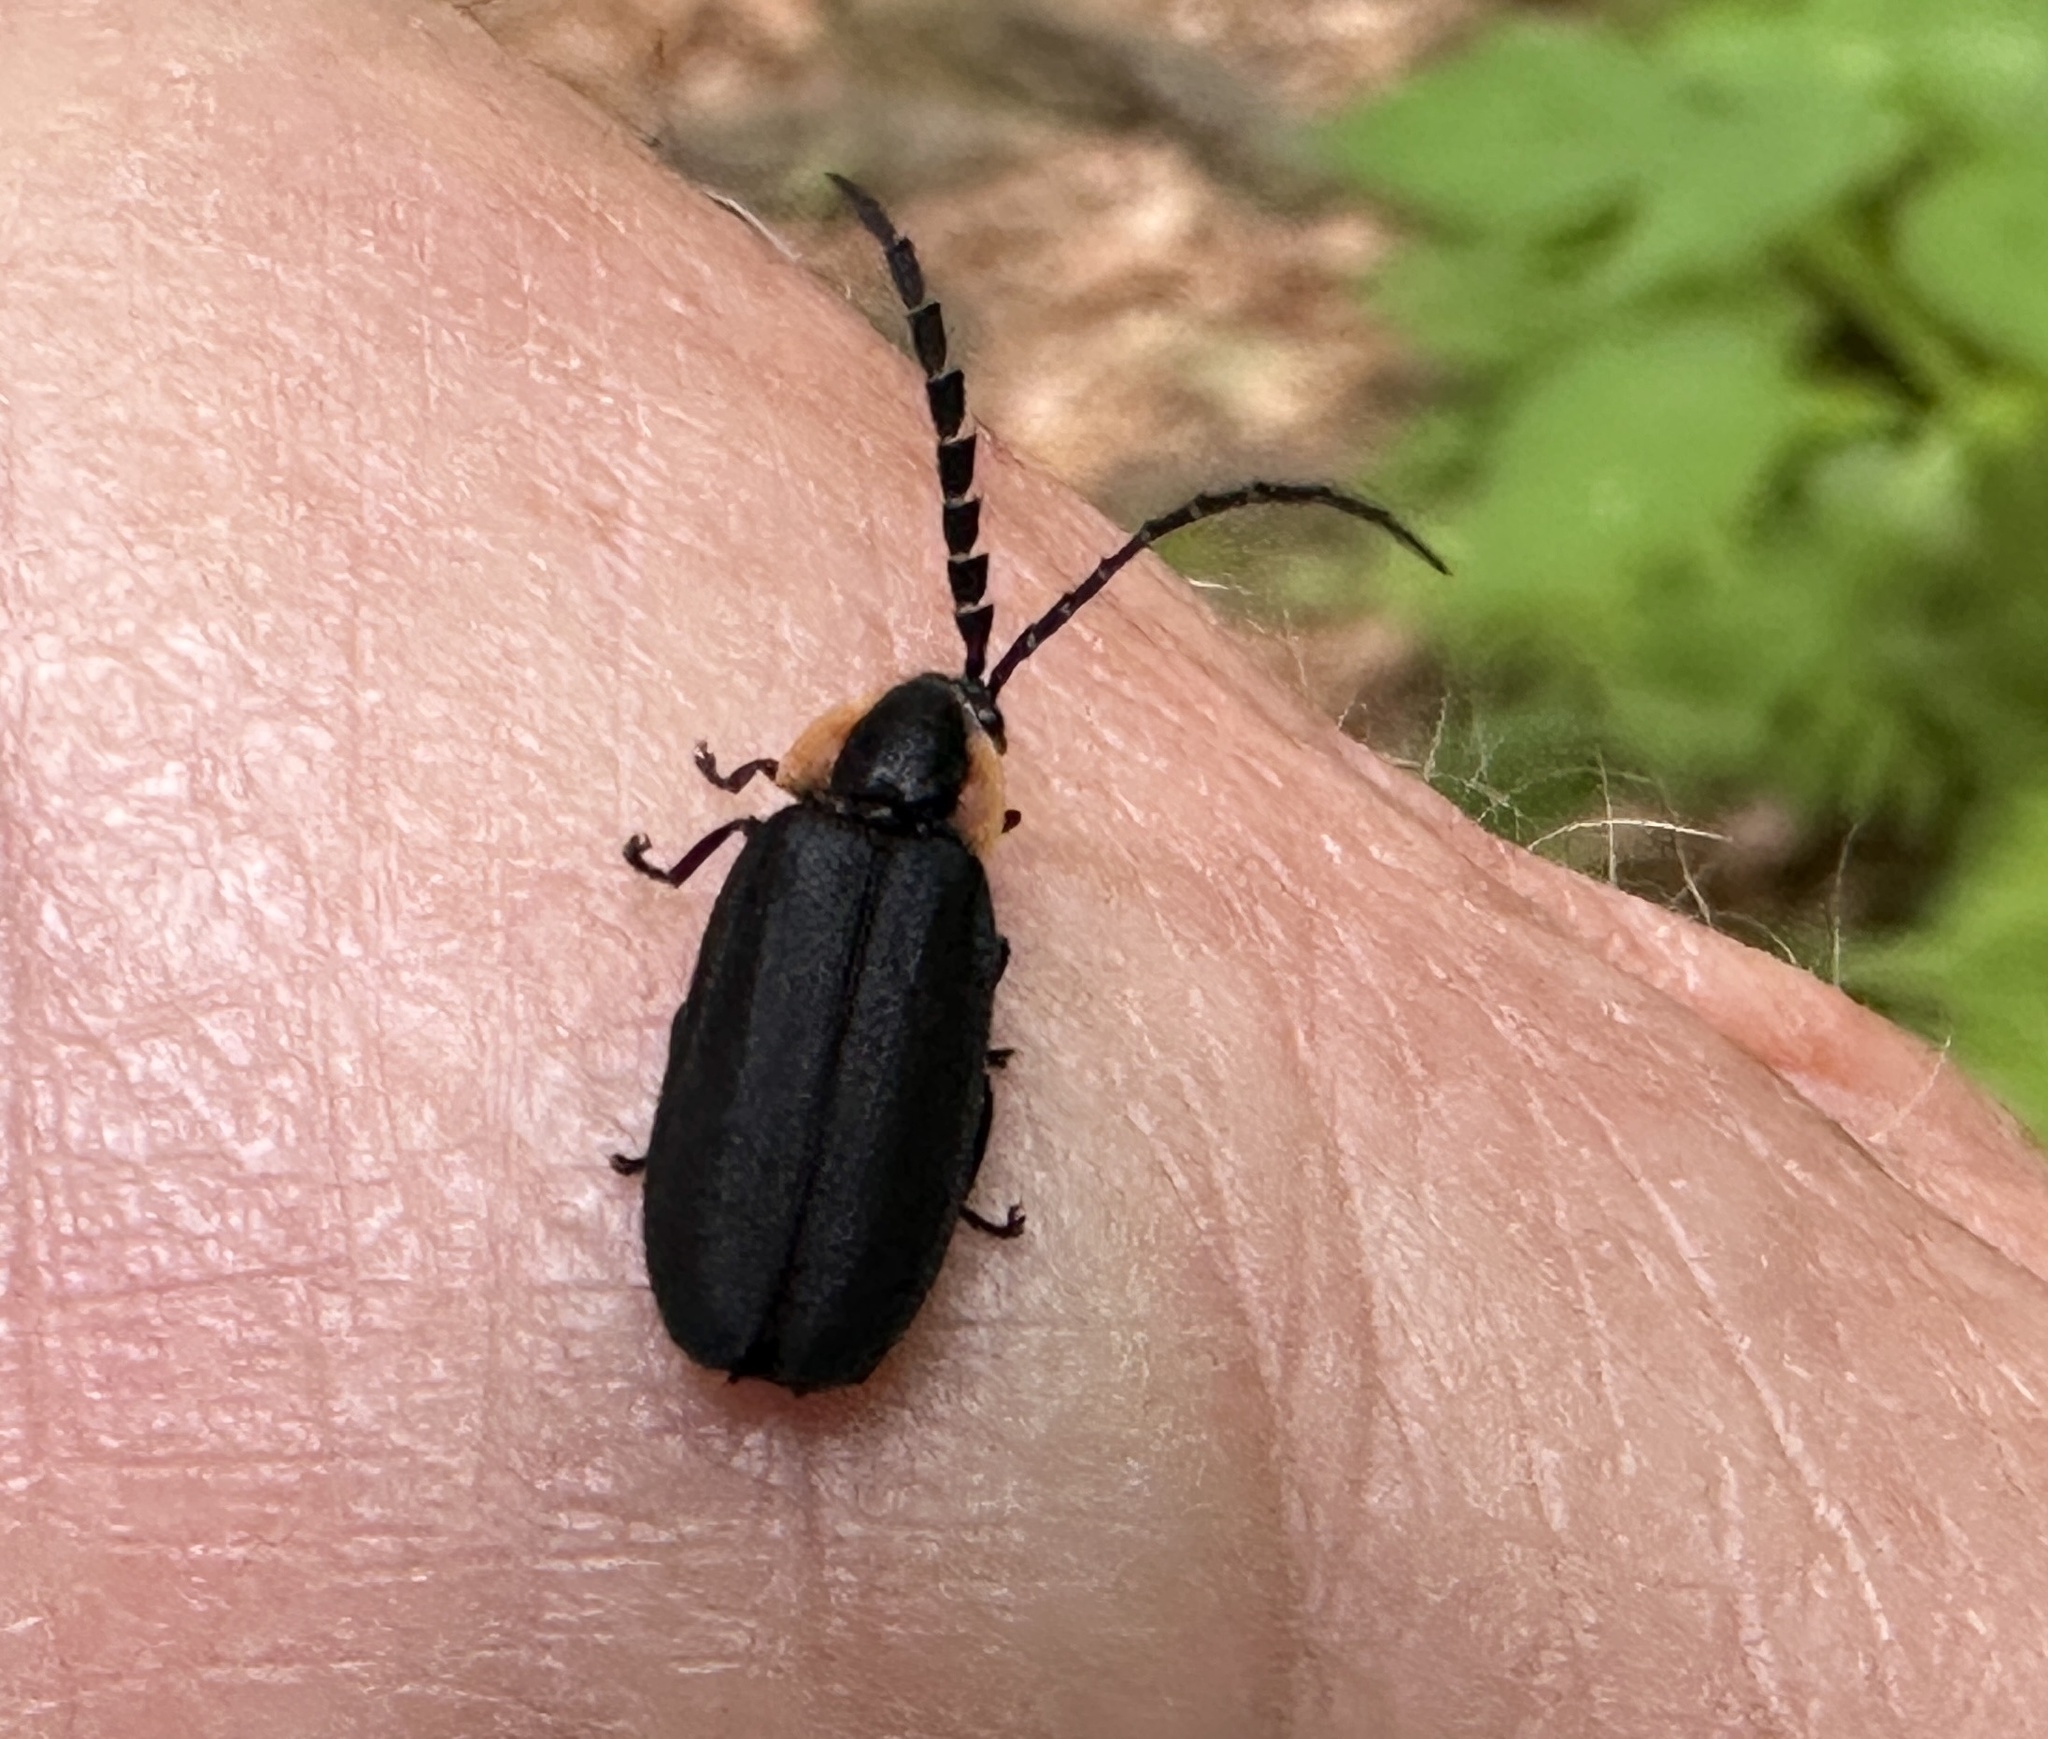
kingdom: Animalia
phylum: Arthropoda
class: Insecta
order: Coleoptera
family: Lampyridae
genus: Lucidota
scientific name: Lucidota atra
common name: Black firefly
